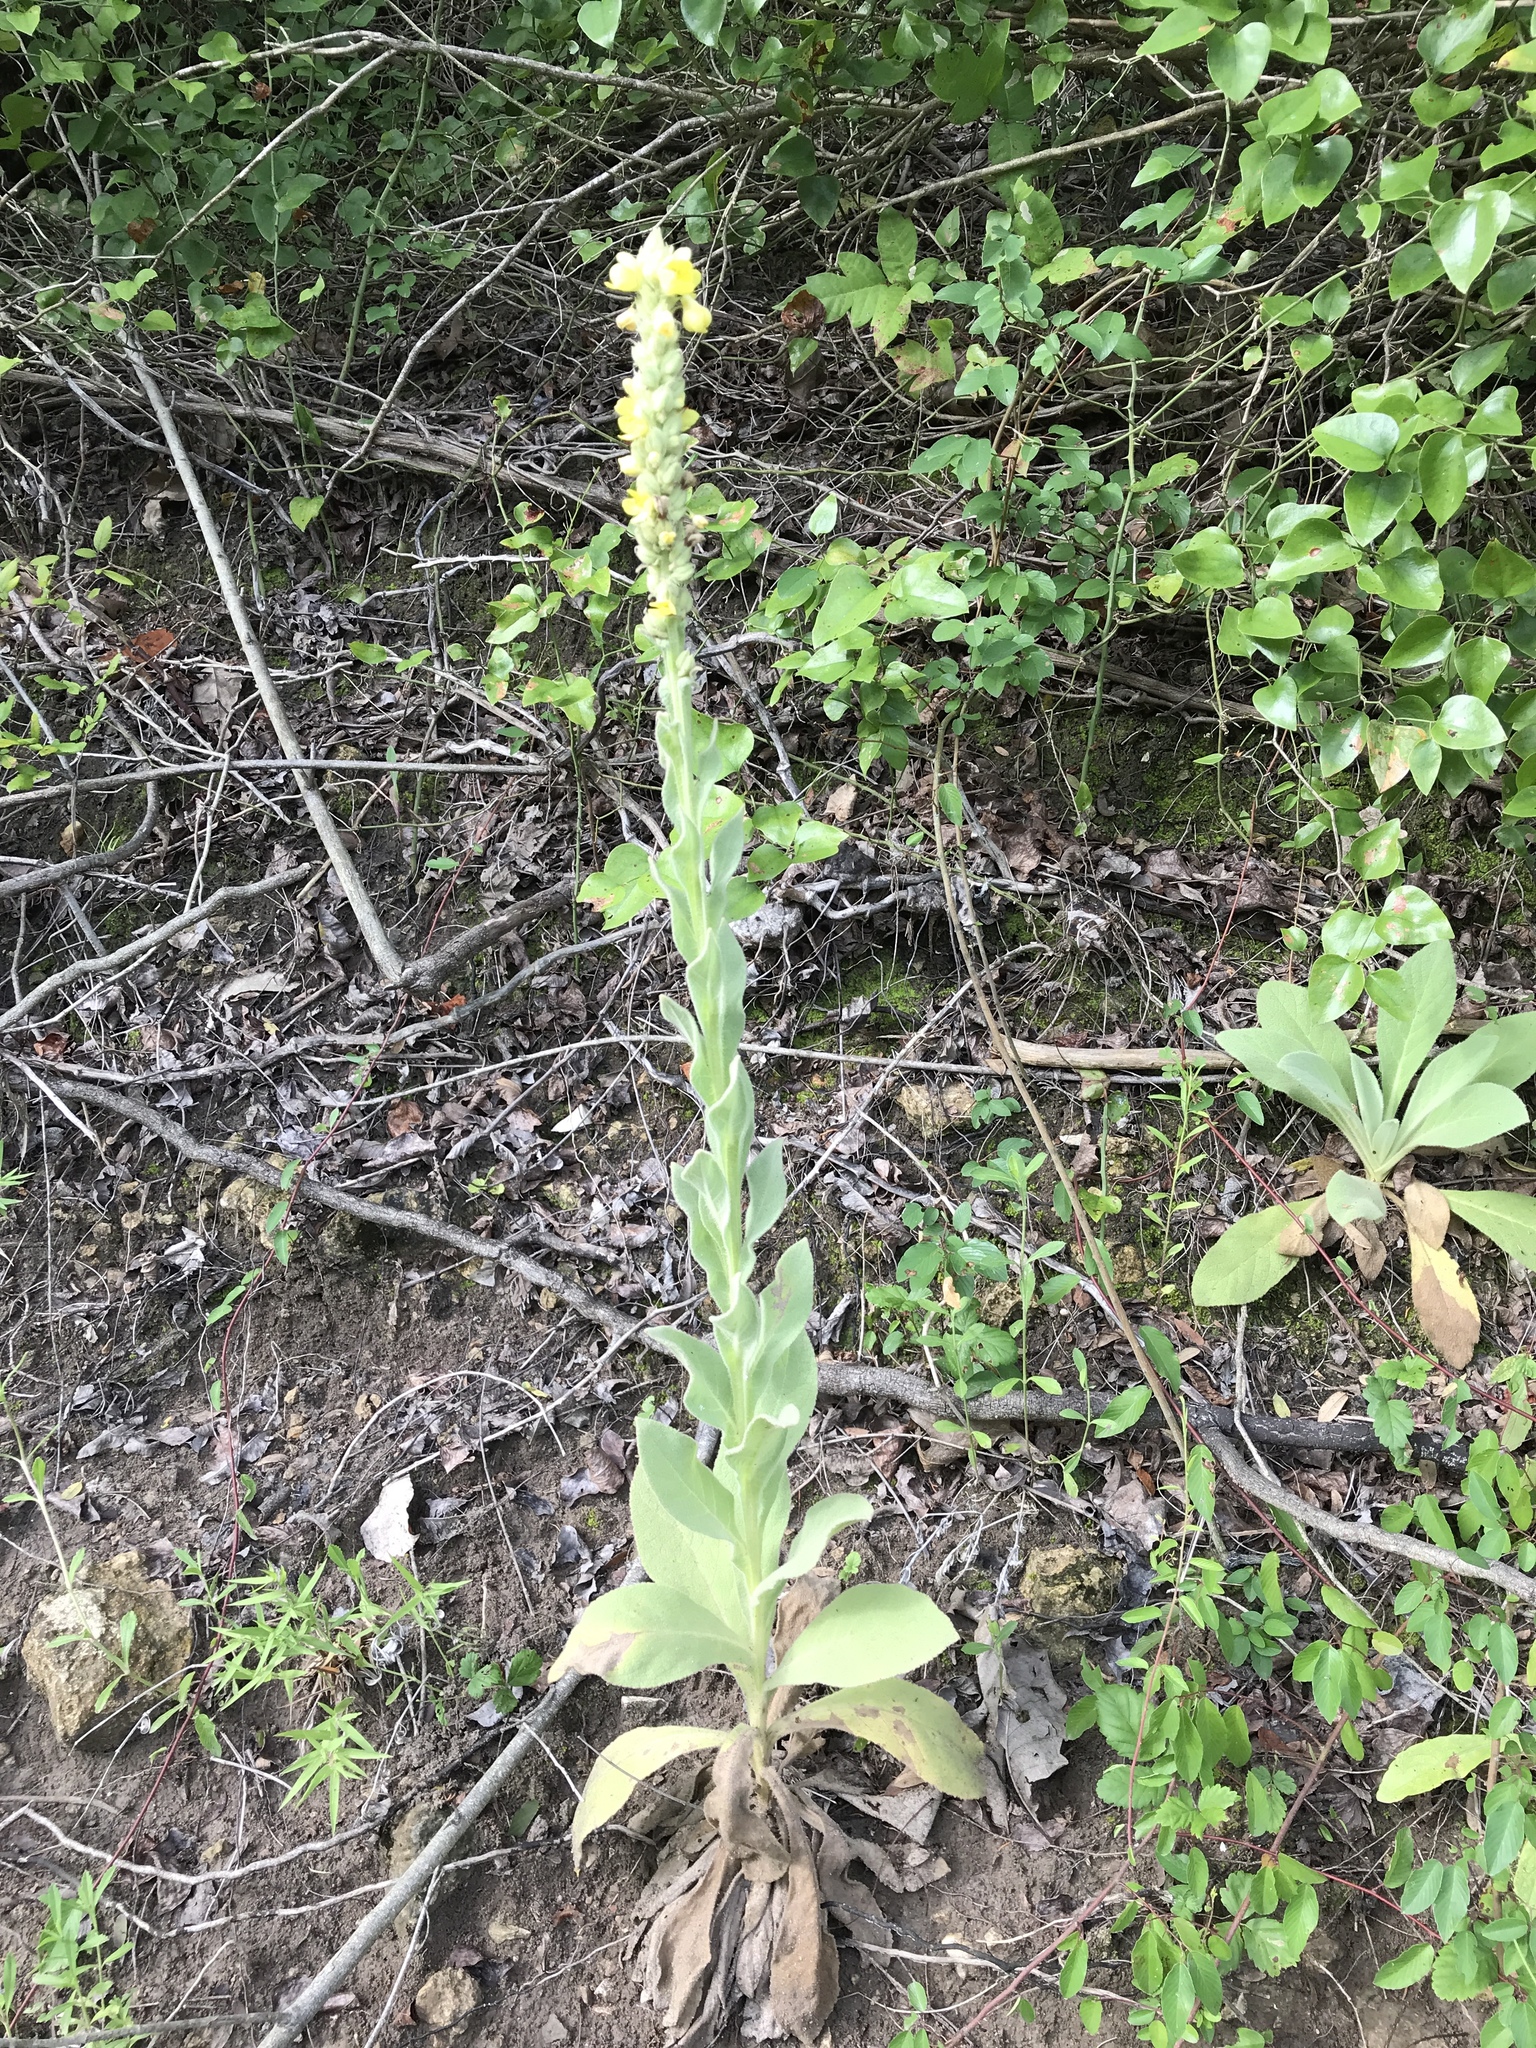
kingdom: Plantae
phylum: Tracheophyta
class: Magnoliopsida
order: Lamiales
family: Scrophulariaceae
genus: Verbascum
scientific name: Verbascum thapsus
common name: Common mullein
